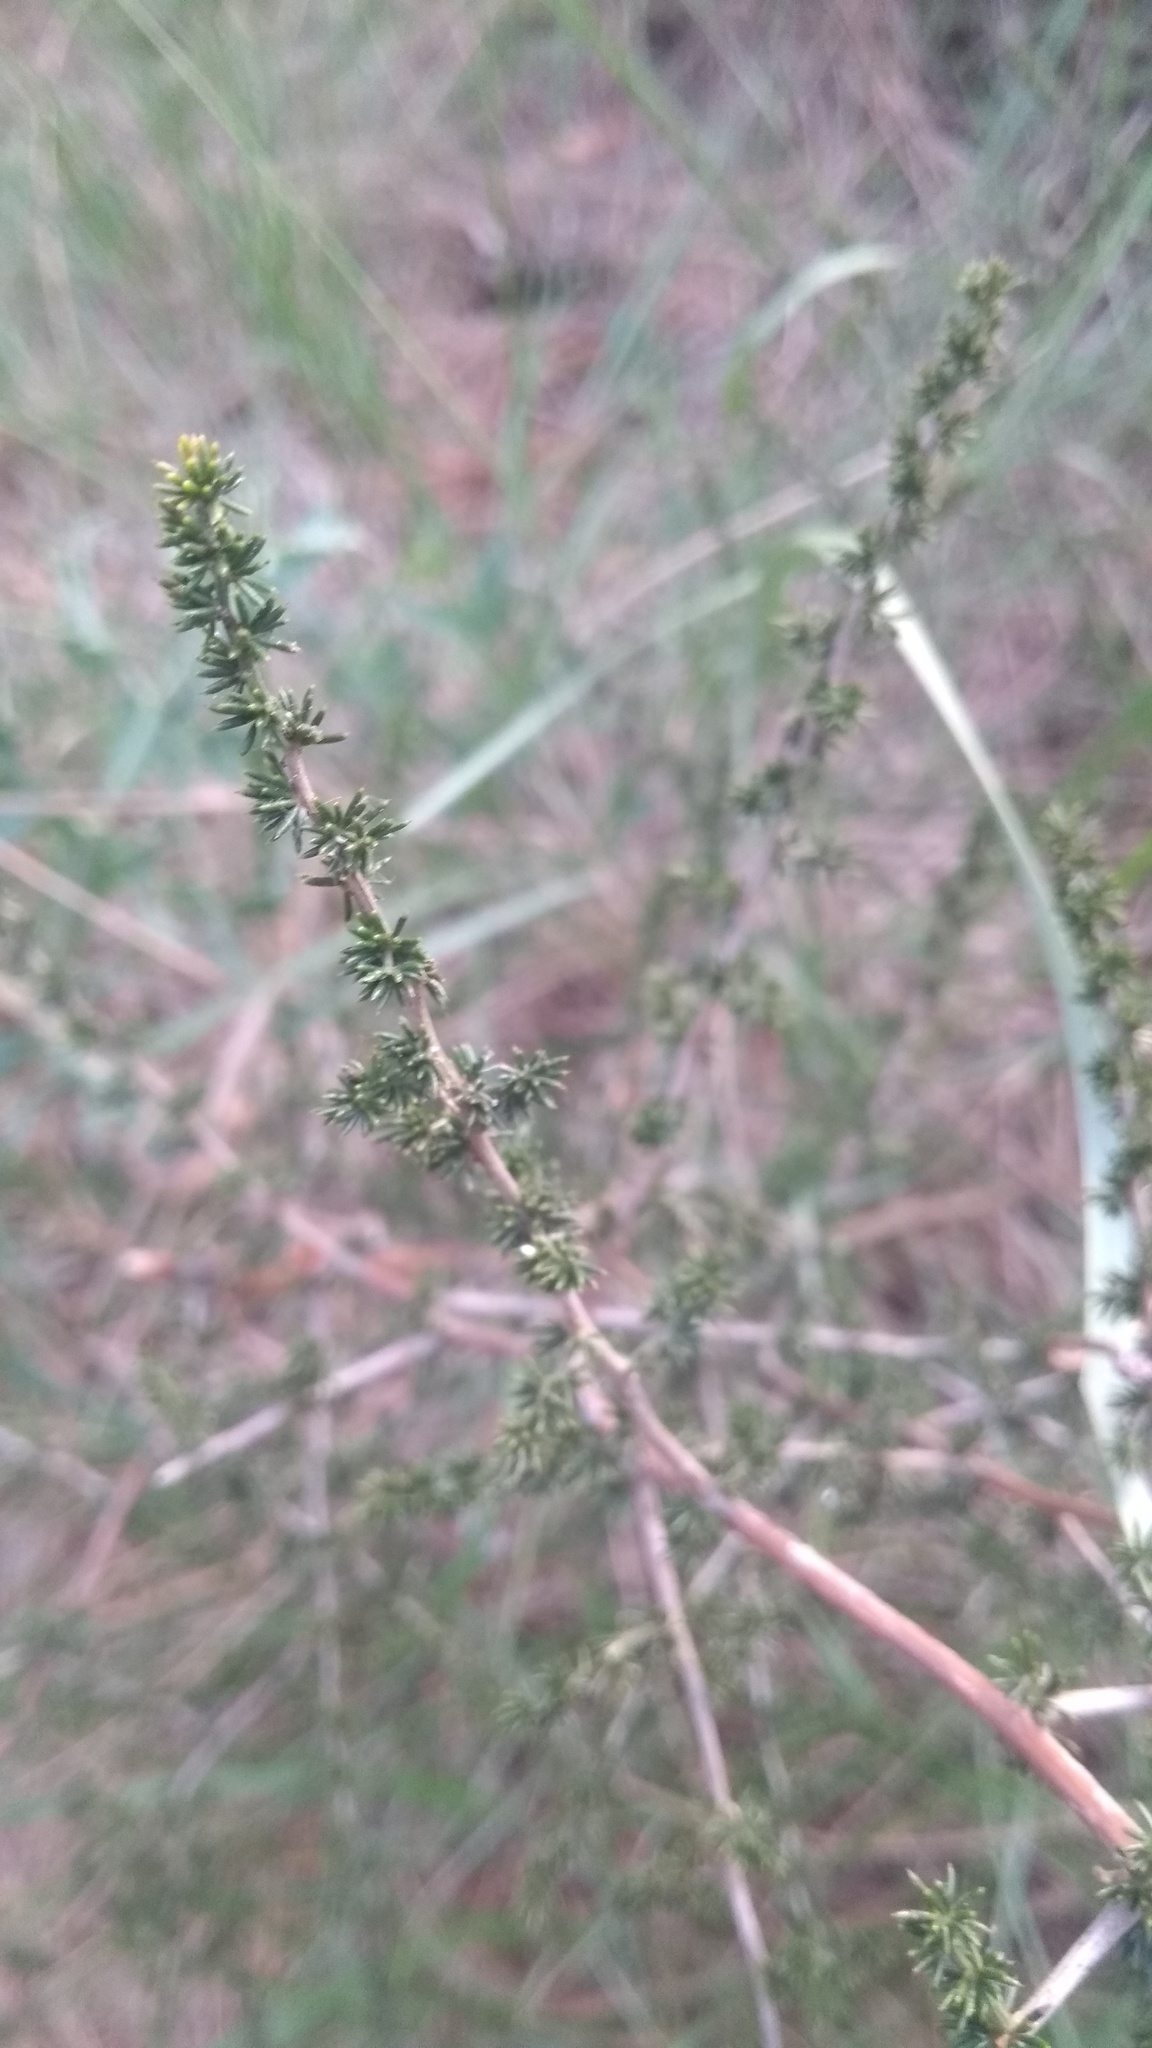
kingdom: Plantae
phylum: Tracheophyta
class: Liliopsida
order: Asparagales
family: Asparagaceae
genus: Asparagus
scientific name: Asparagus acutifolius
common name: Wild asparagus
